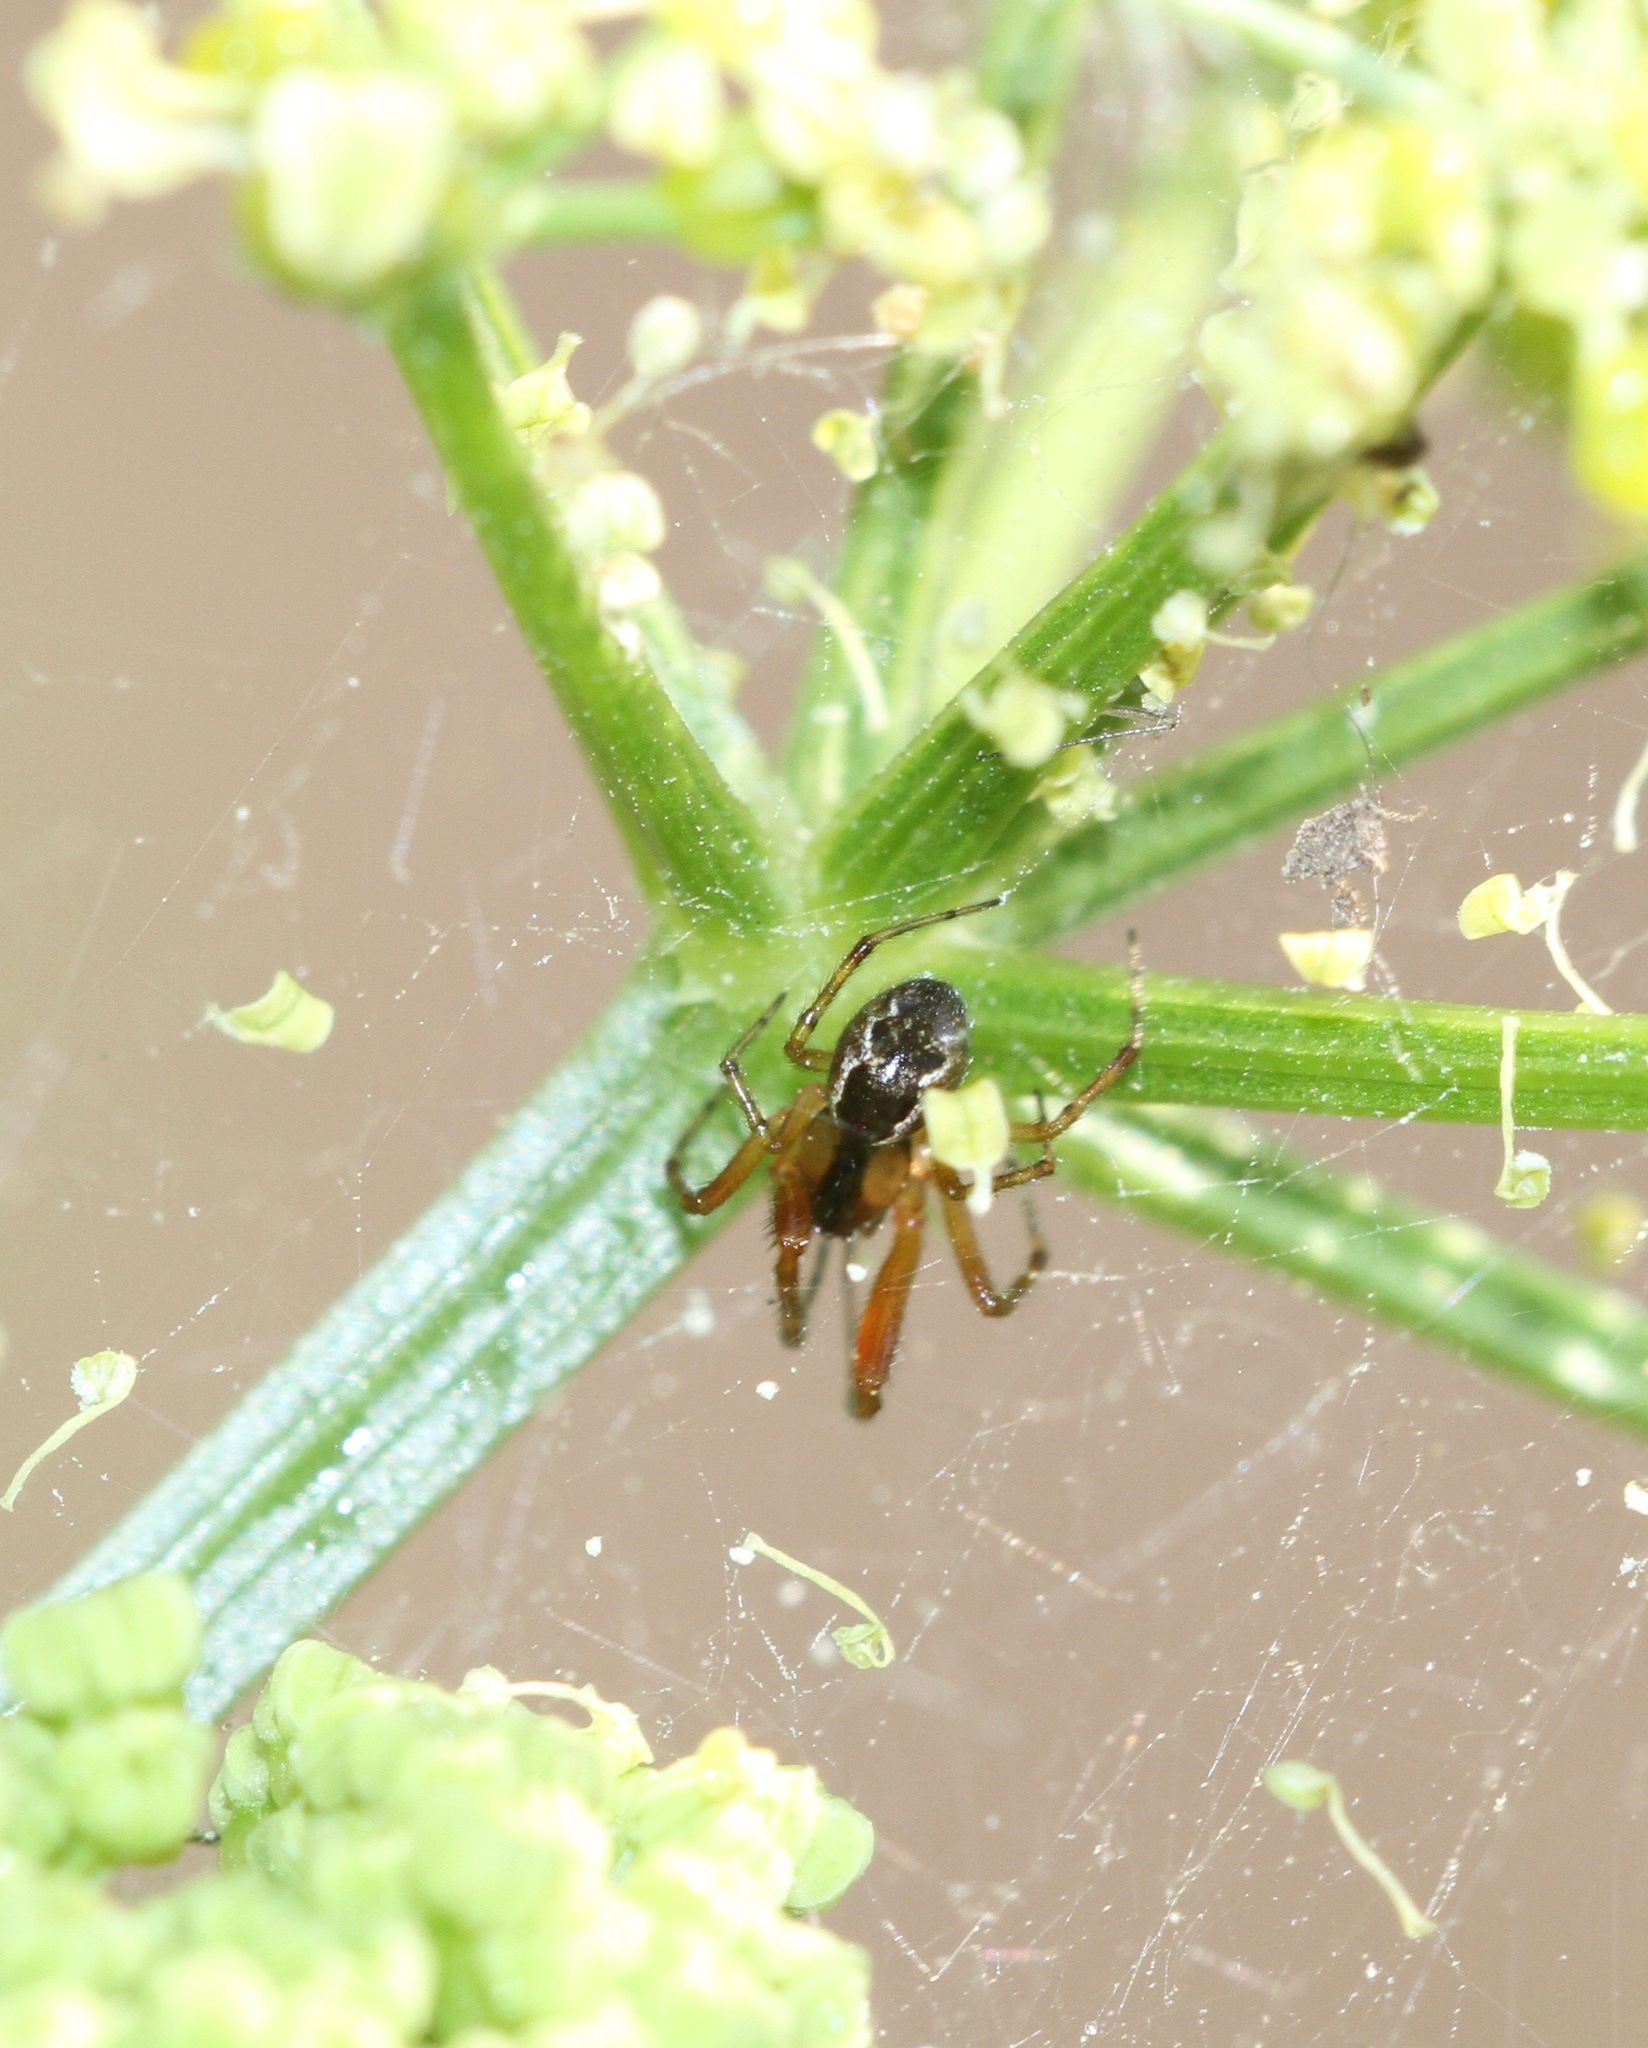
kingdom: Animalia
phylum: Arthropoda
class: Arachnida
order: Araneae
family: Theridiidae
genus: Anelosimus
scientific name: Anelosimus vittatus
